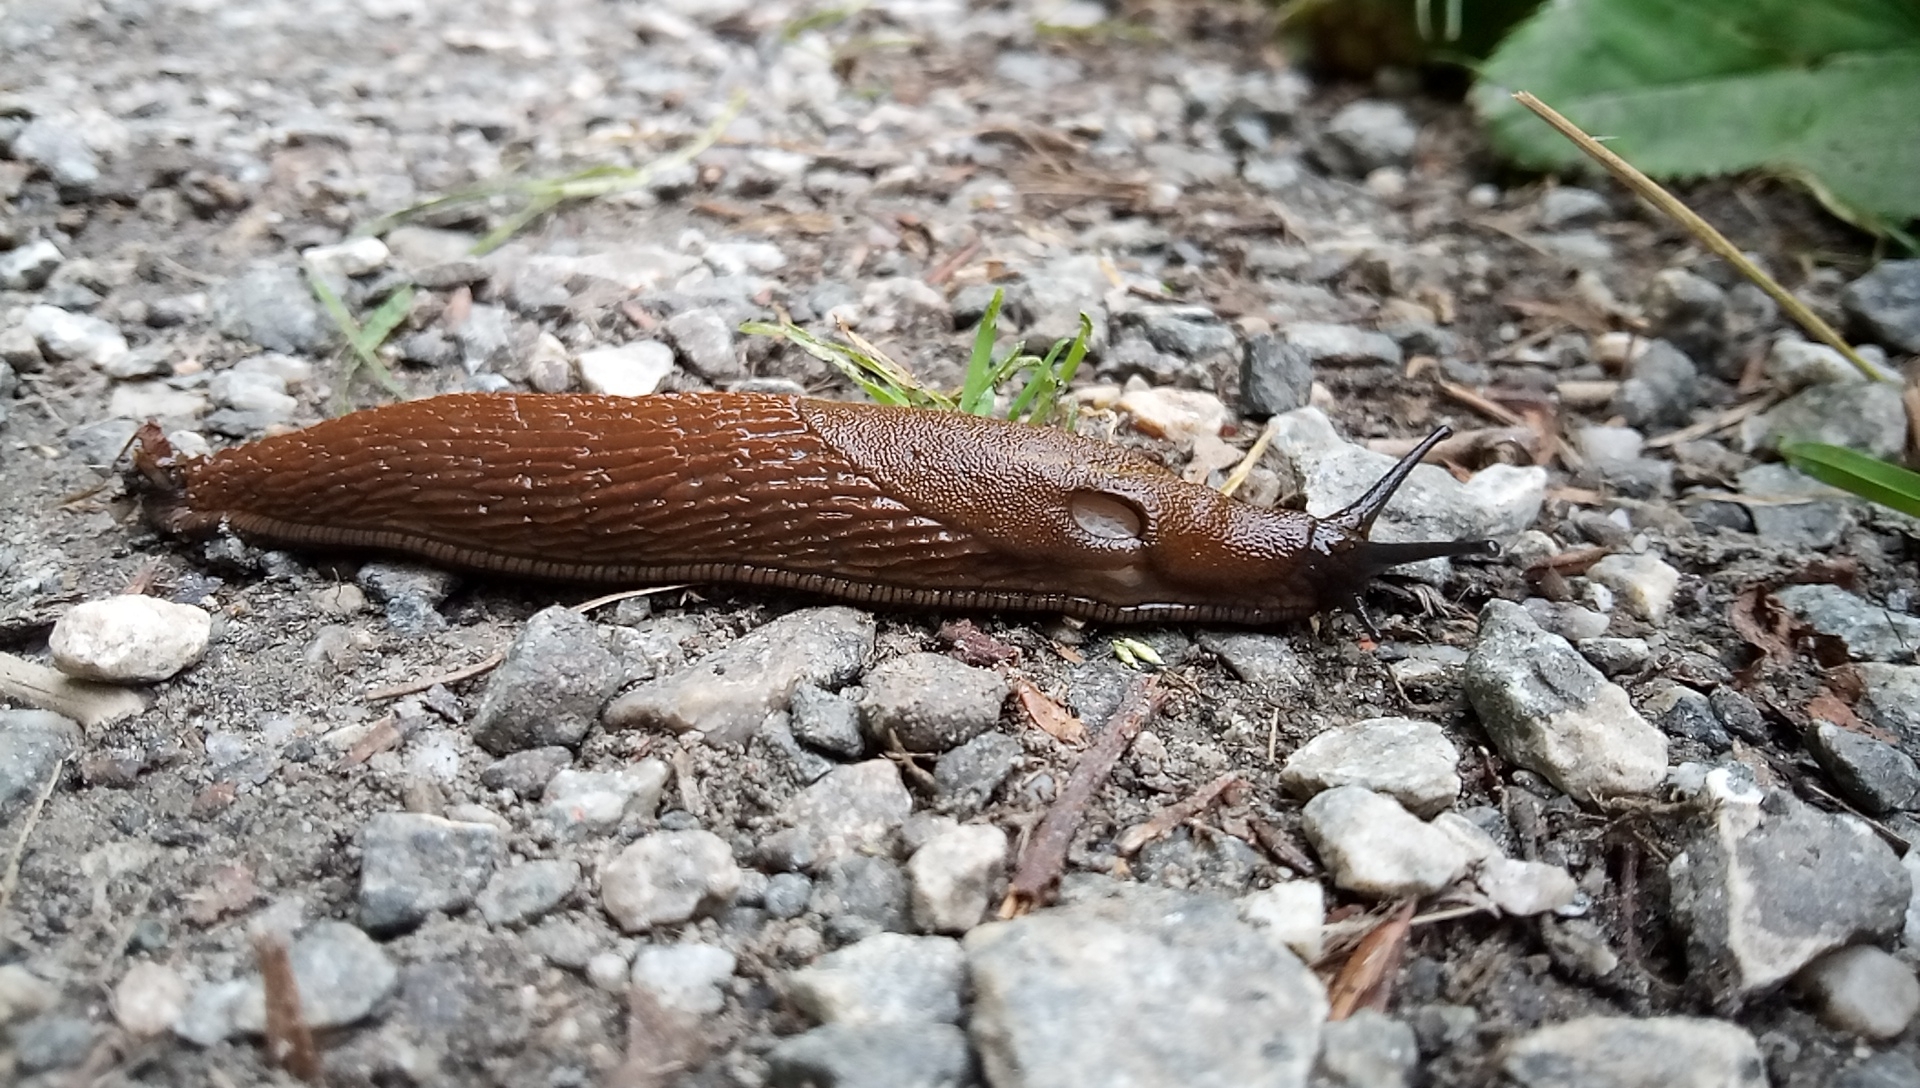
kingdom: Animalia
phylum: Mollusca
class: Gastropoda
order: Stylommatophora
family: Arionidae
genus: Arion
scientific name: Arion vulgaris
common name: Lusitanian slug
